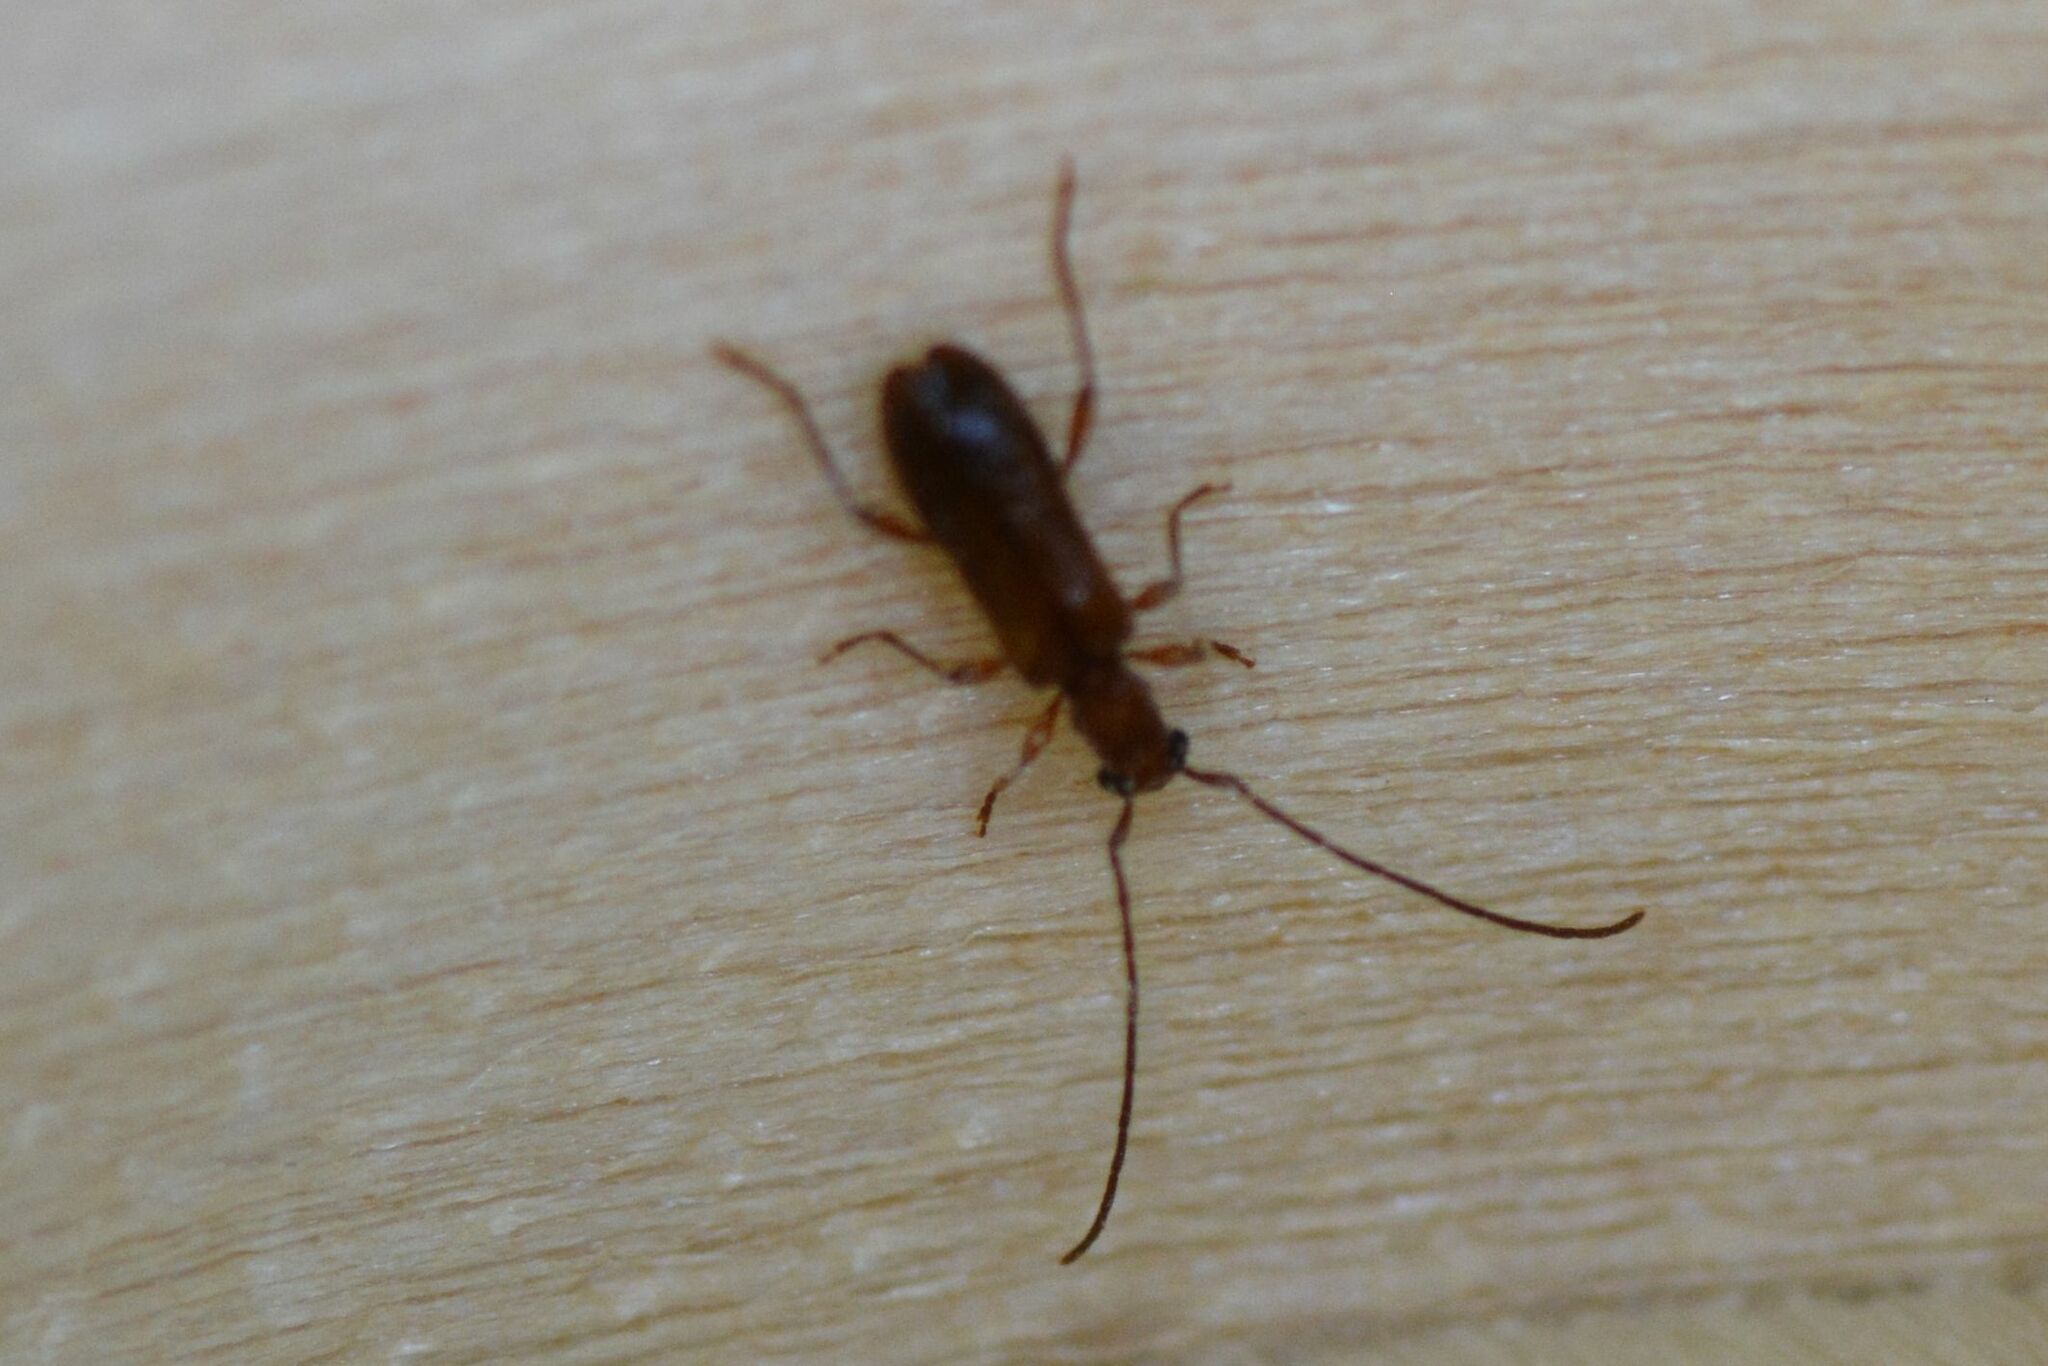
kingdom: Animalia
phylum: Arthropoda
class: Insecta
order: Coleoptera
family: Cerambycidae
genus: Obrium
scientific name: Obrium brunneum
